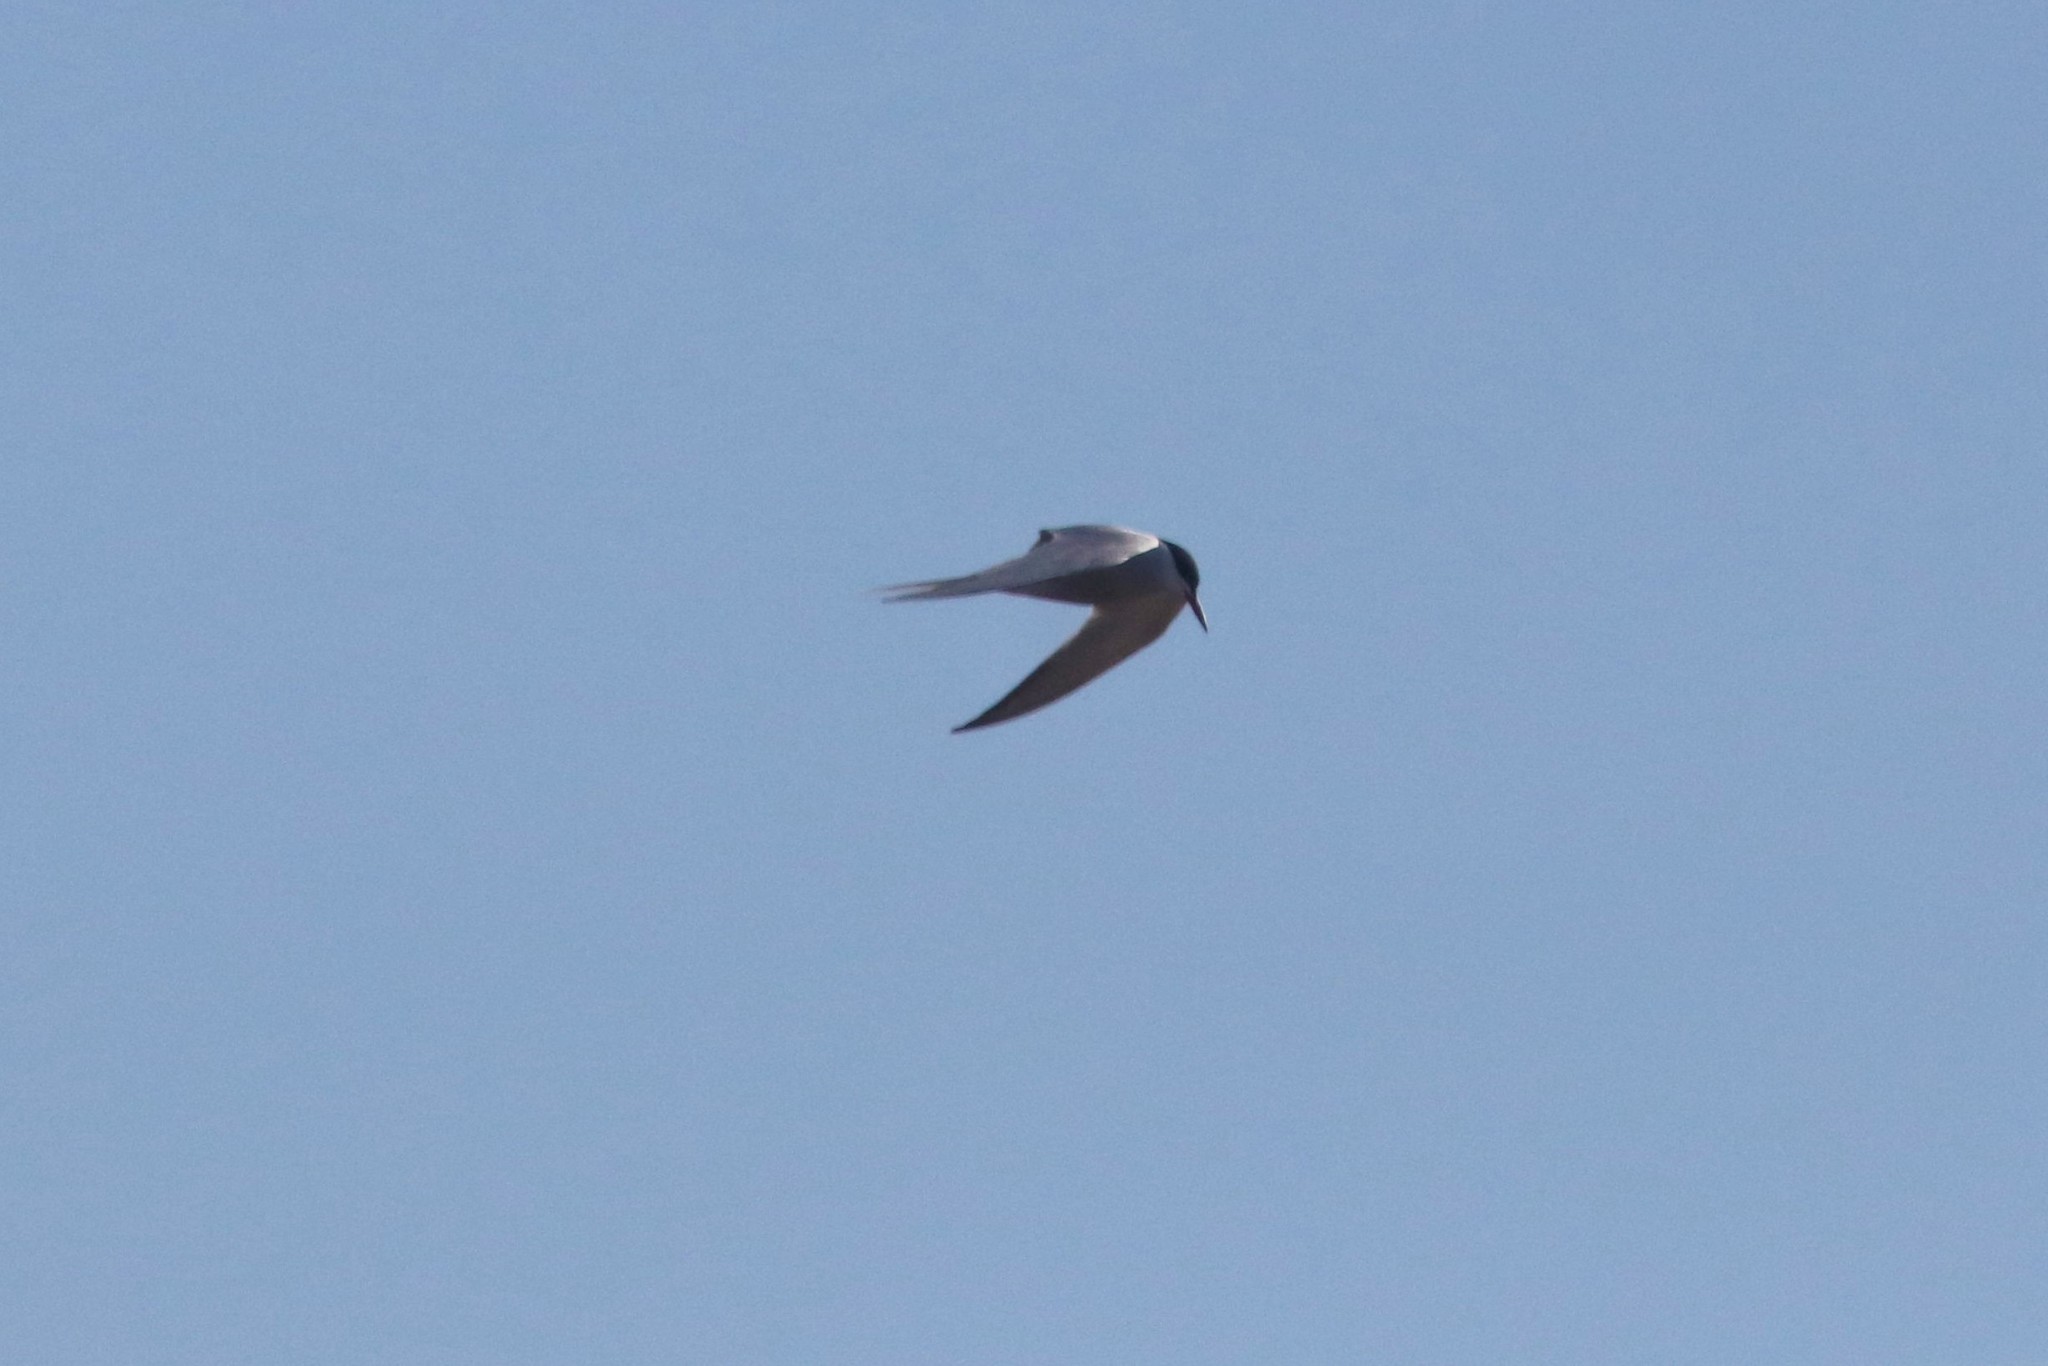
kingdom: Animalia
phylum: Chordata
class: Aves
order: Charadriiformes
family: Laridae
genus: Sterna
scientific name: Sterna hirundo
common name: Common tern
